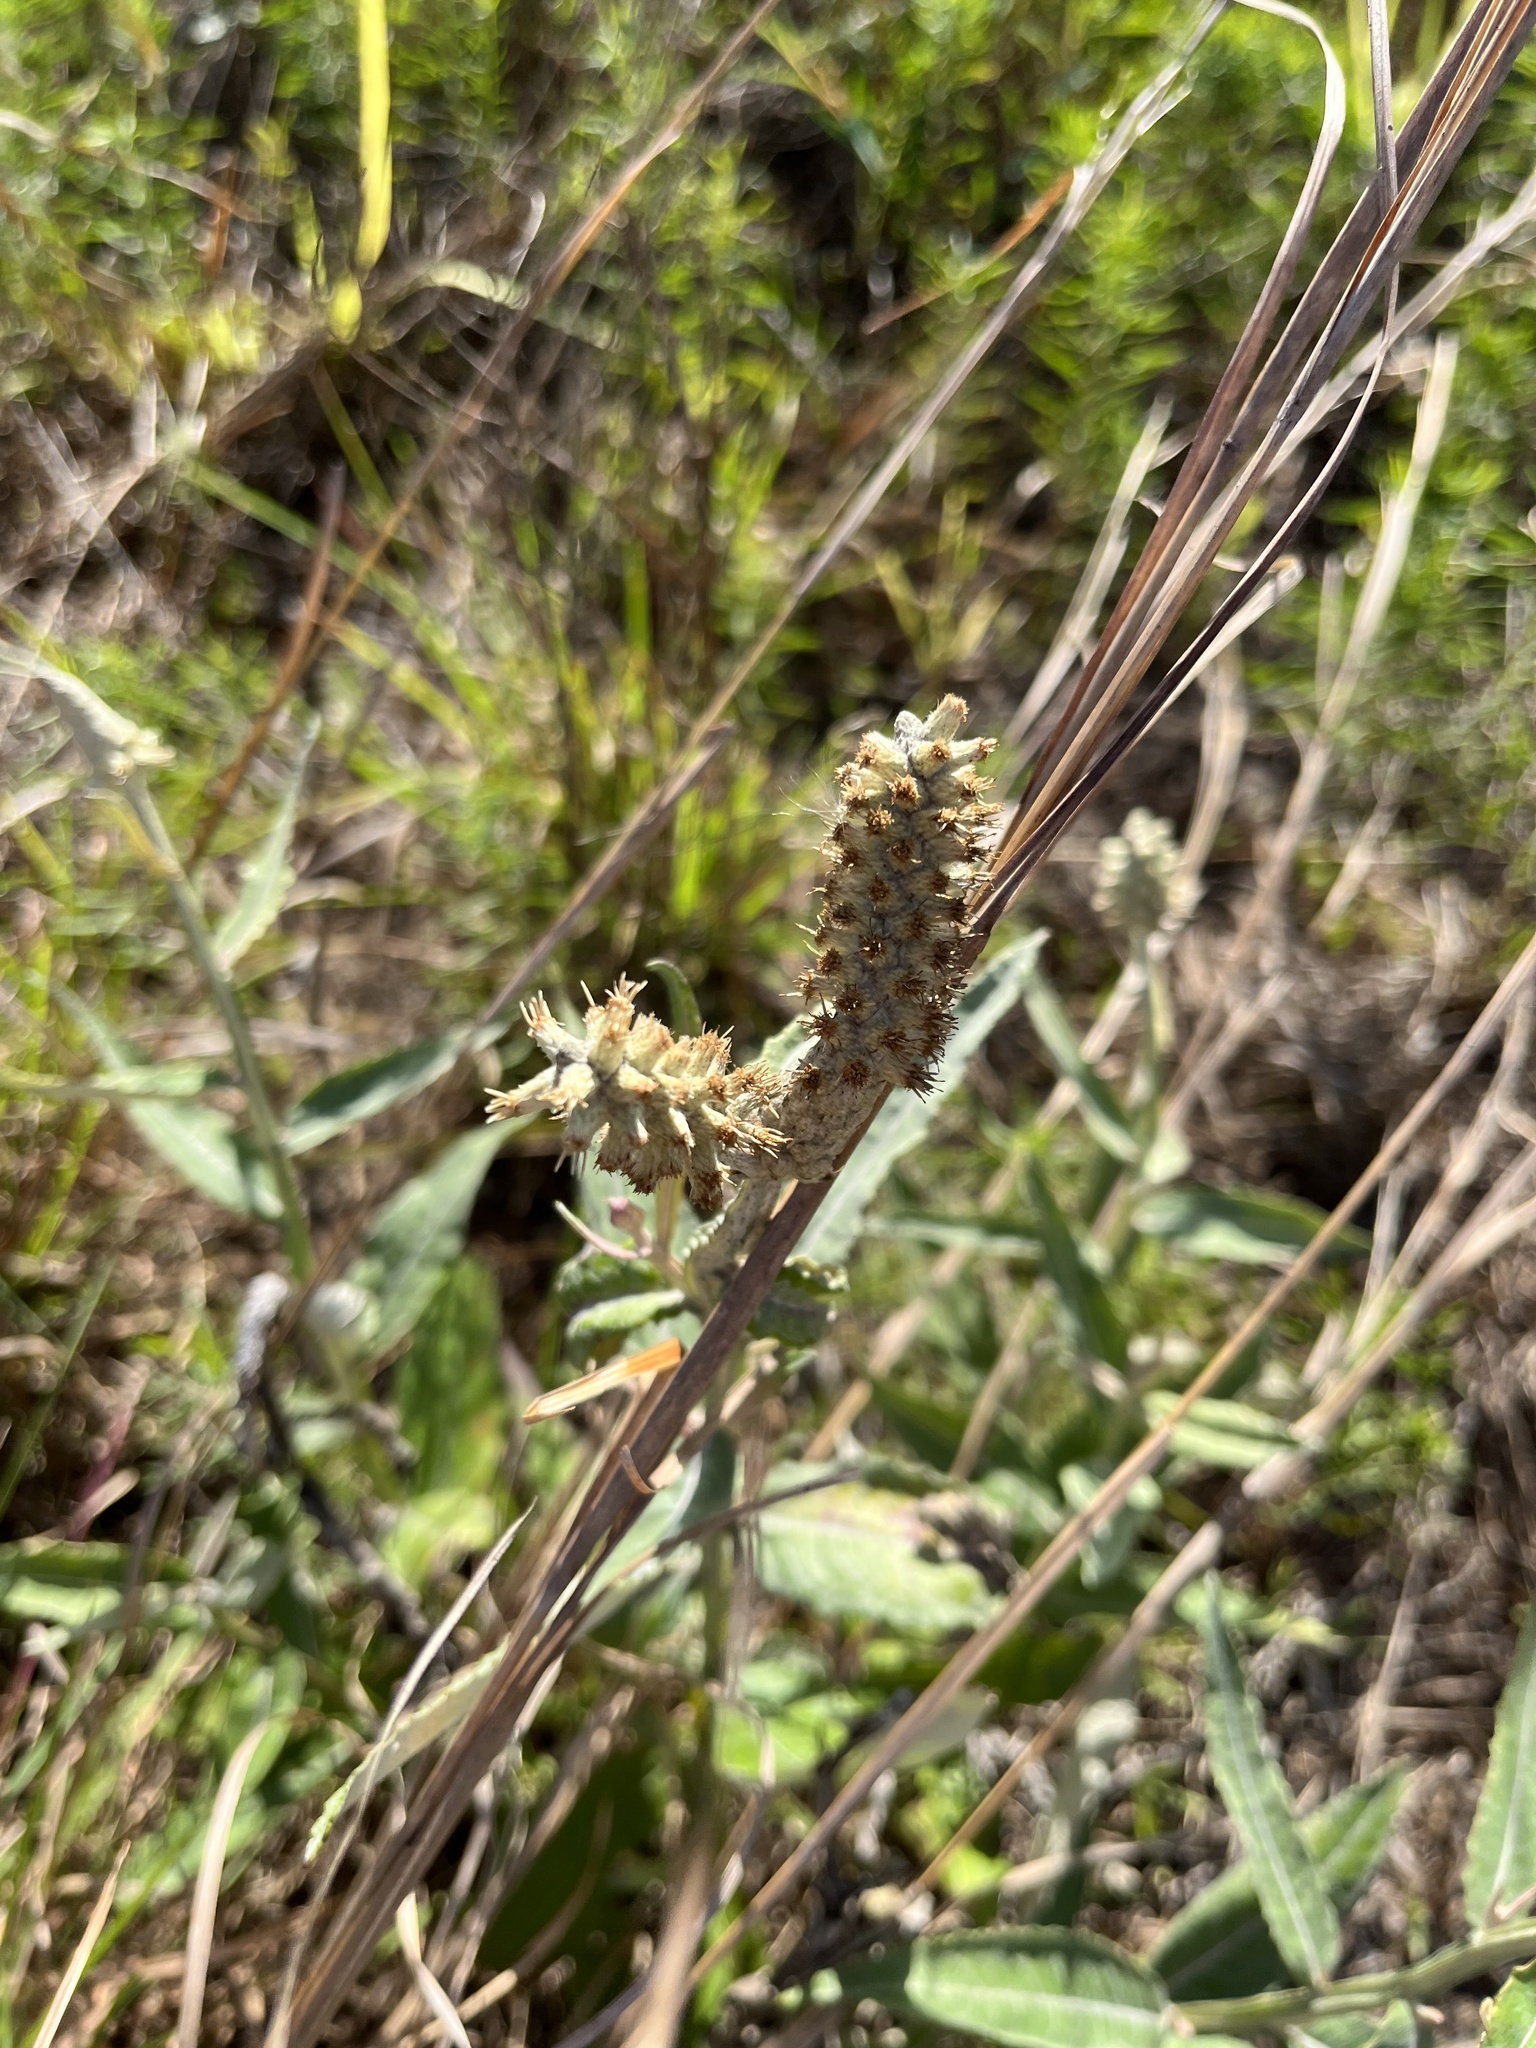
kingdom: Plantae
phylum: Tracheophyta
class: Magnoliopsida
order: Asterales
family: Asteraceae
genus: Pterocaulon
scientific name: Pterocaulon pycnostachyum
